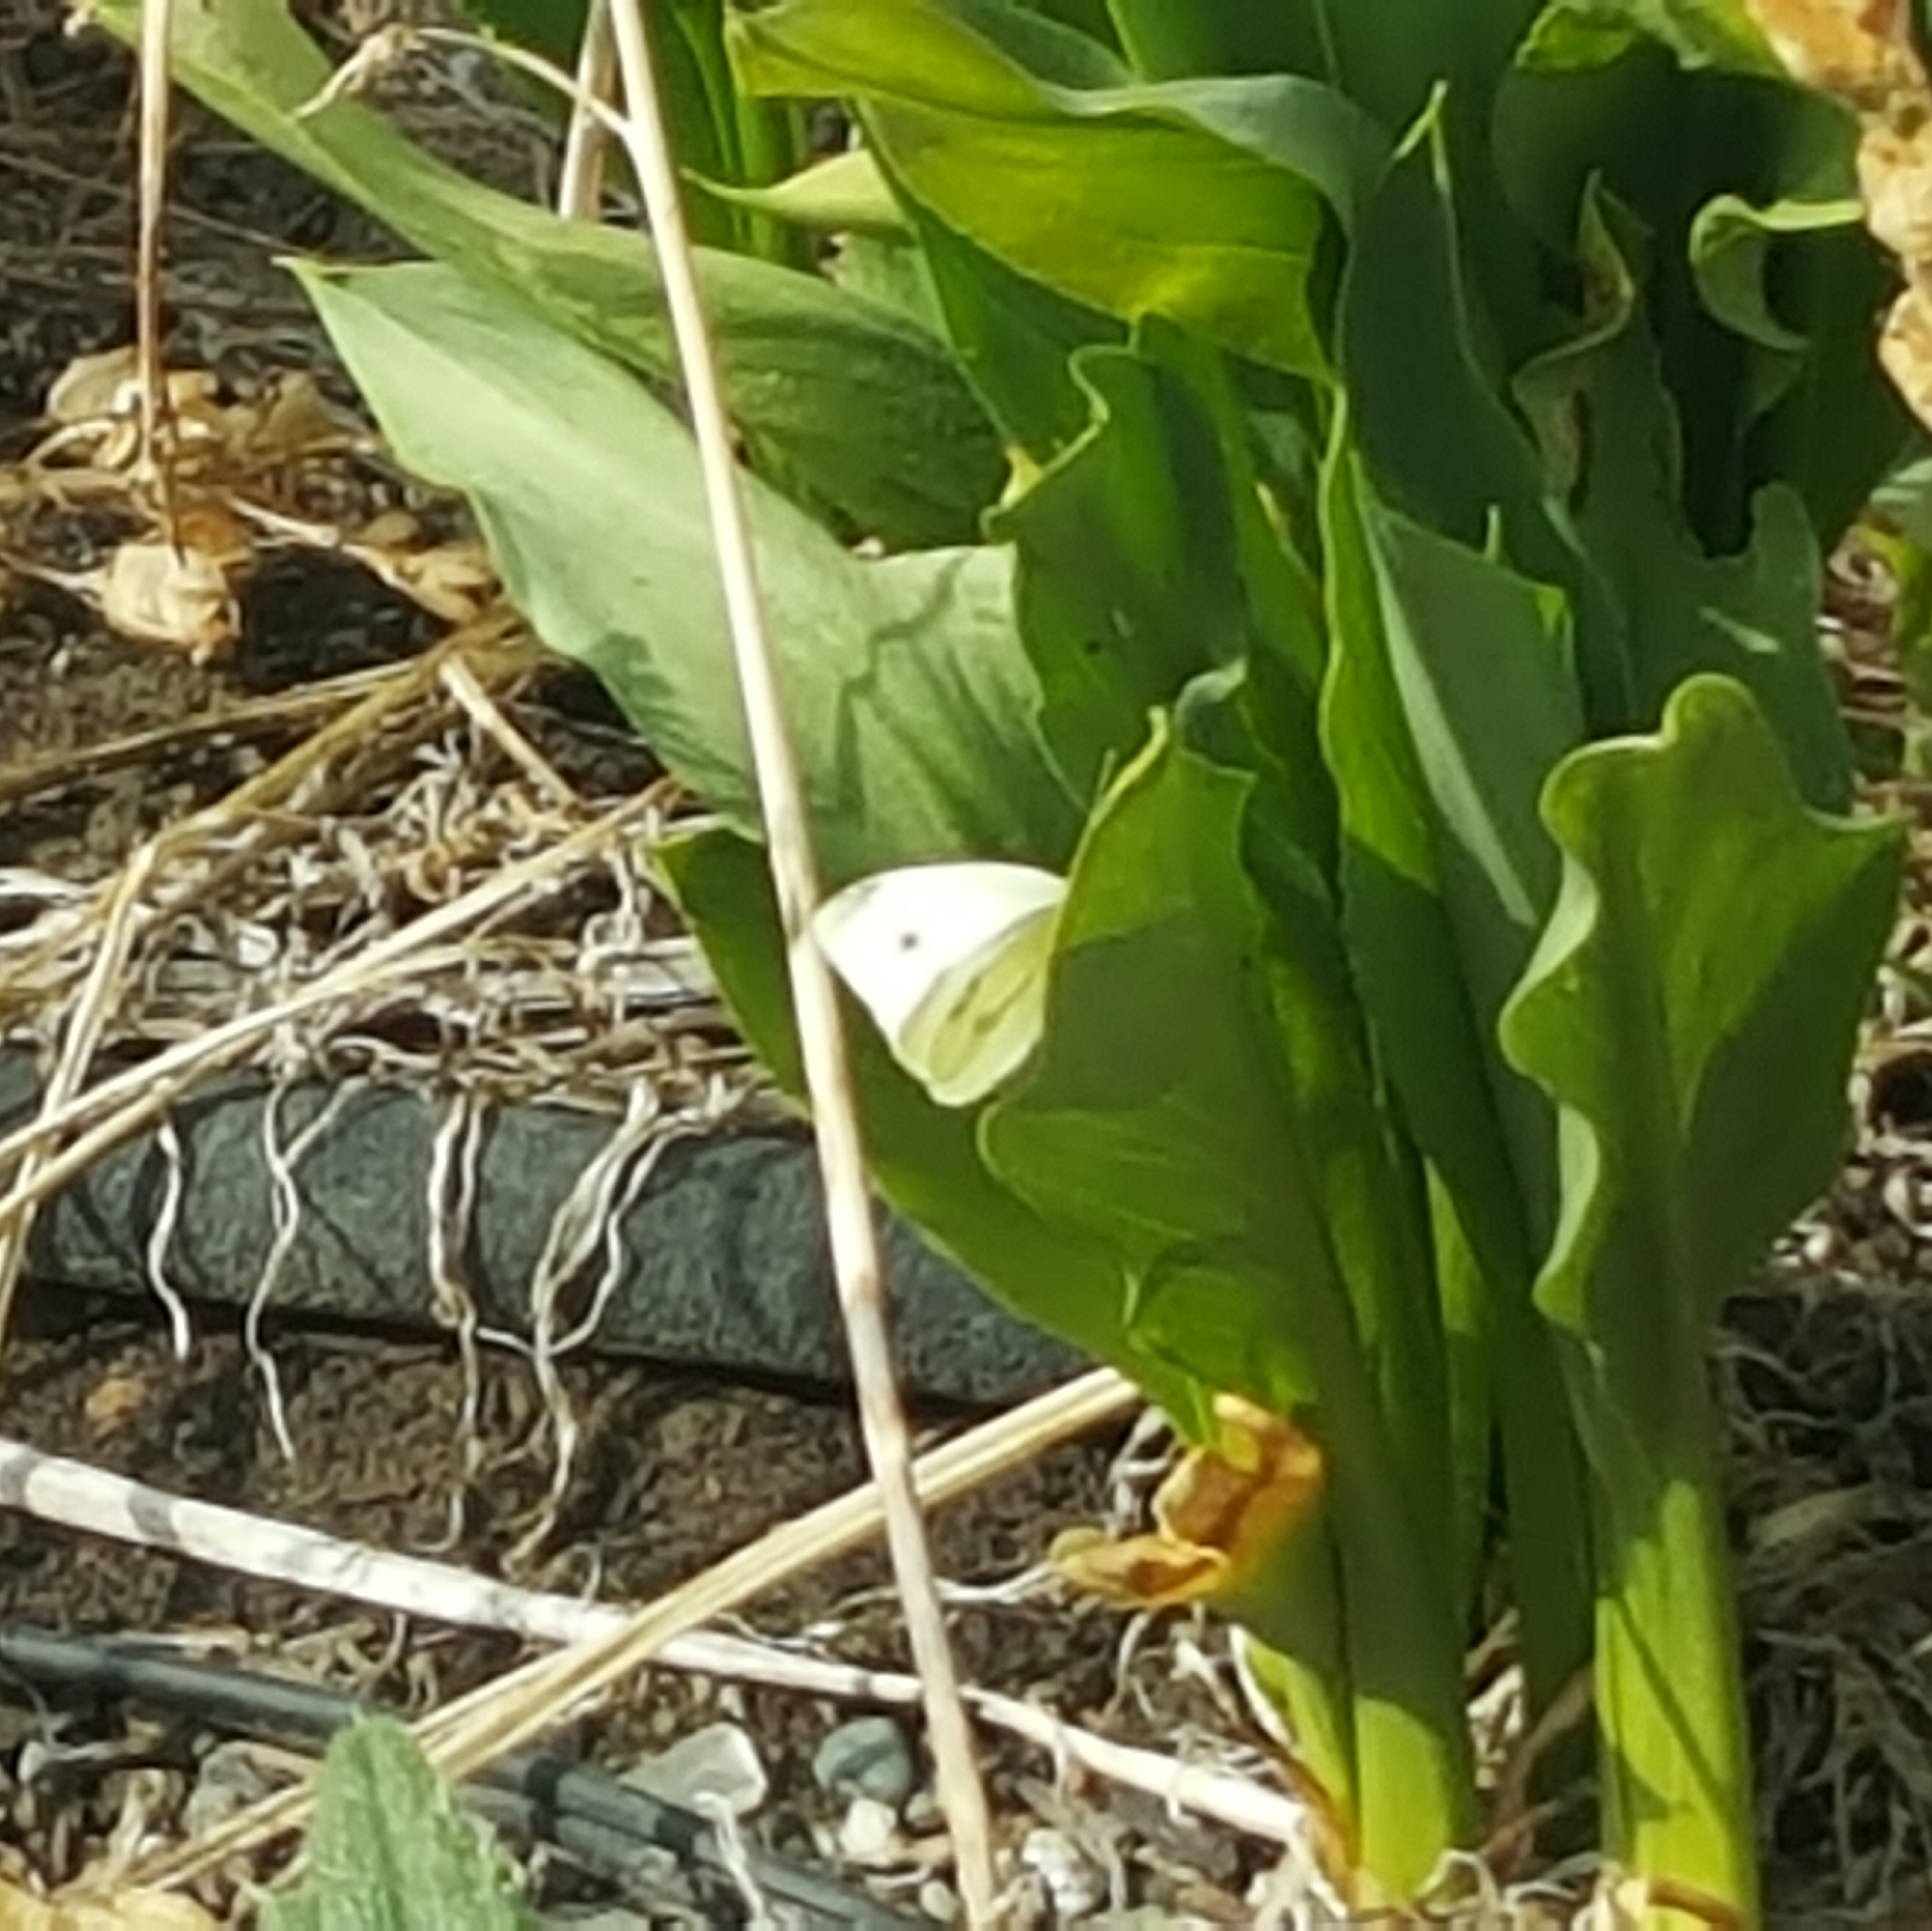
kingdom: Animalia
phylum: Arthropoda
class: Insecta
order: Lepidoptera
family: Pieridae
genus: Pieris
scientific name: Pieris rapae
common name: Small white
